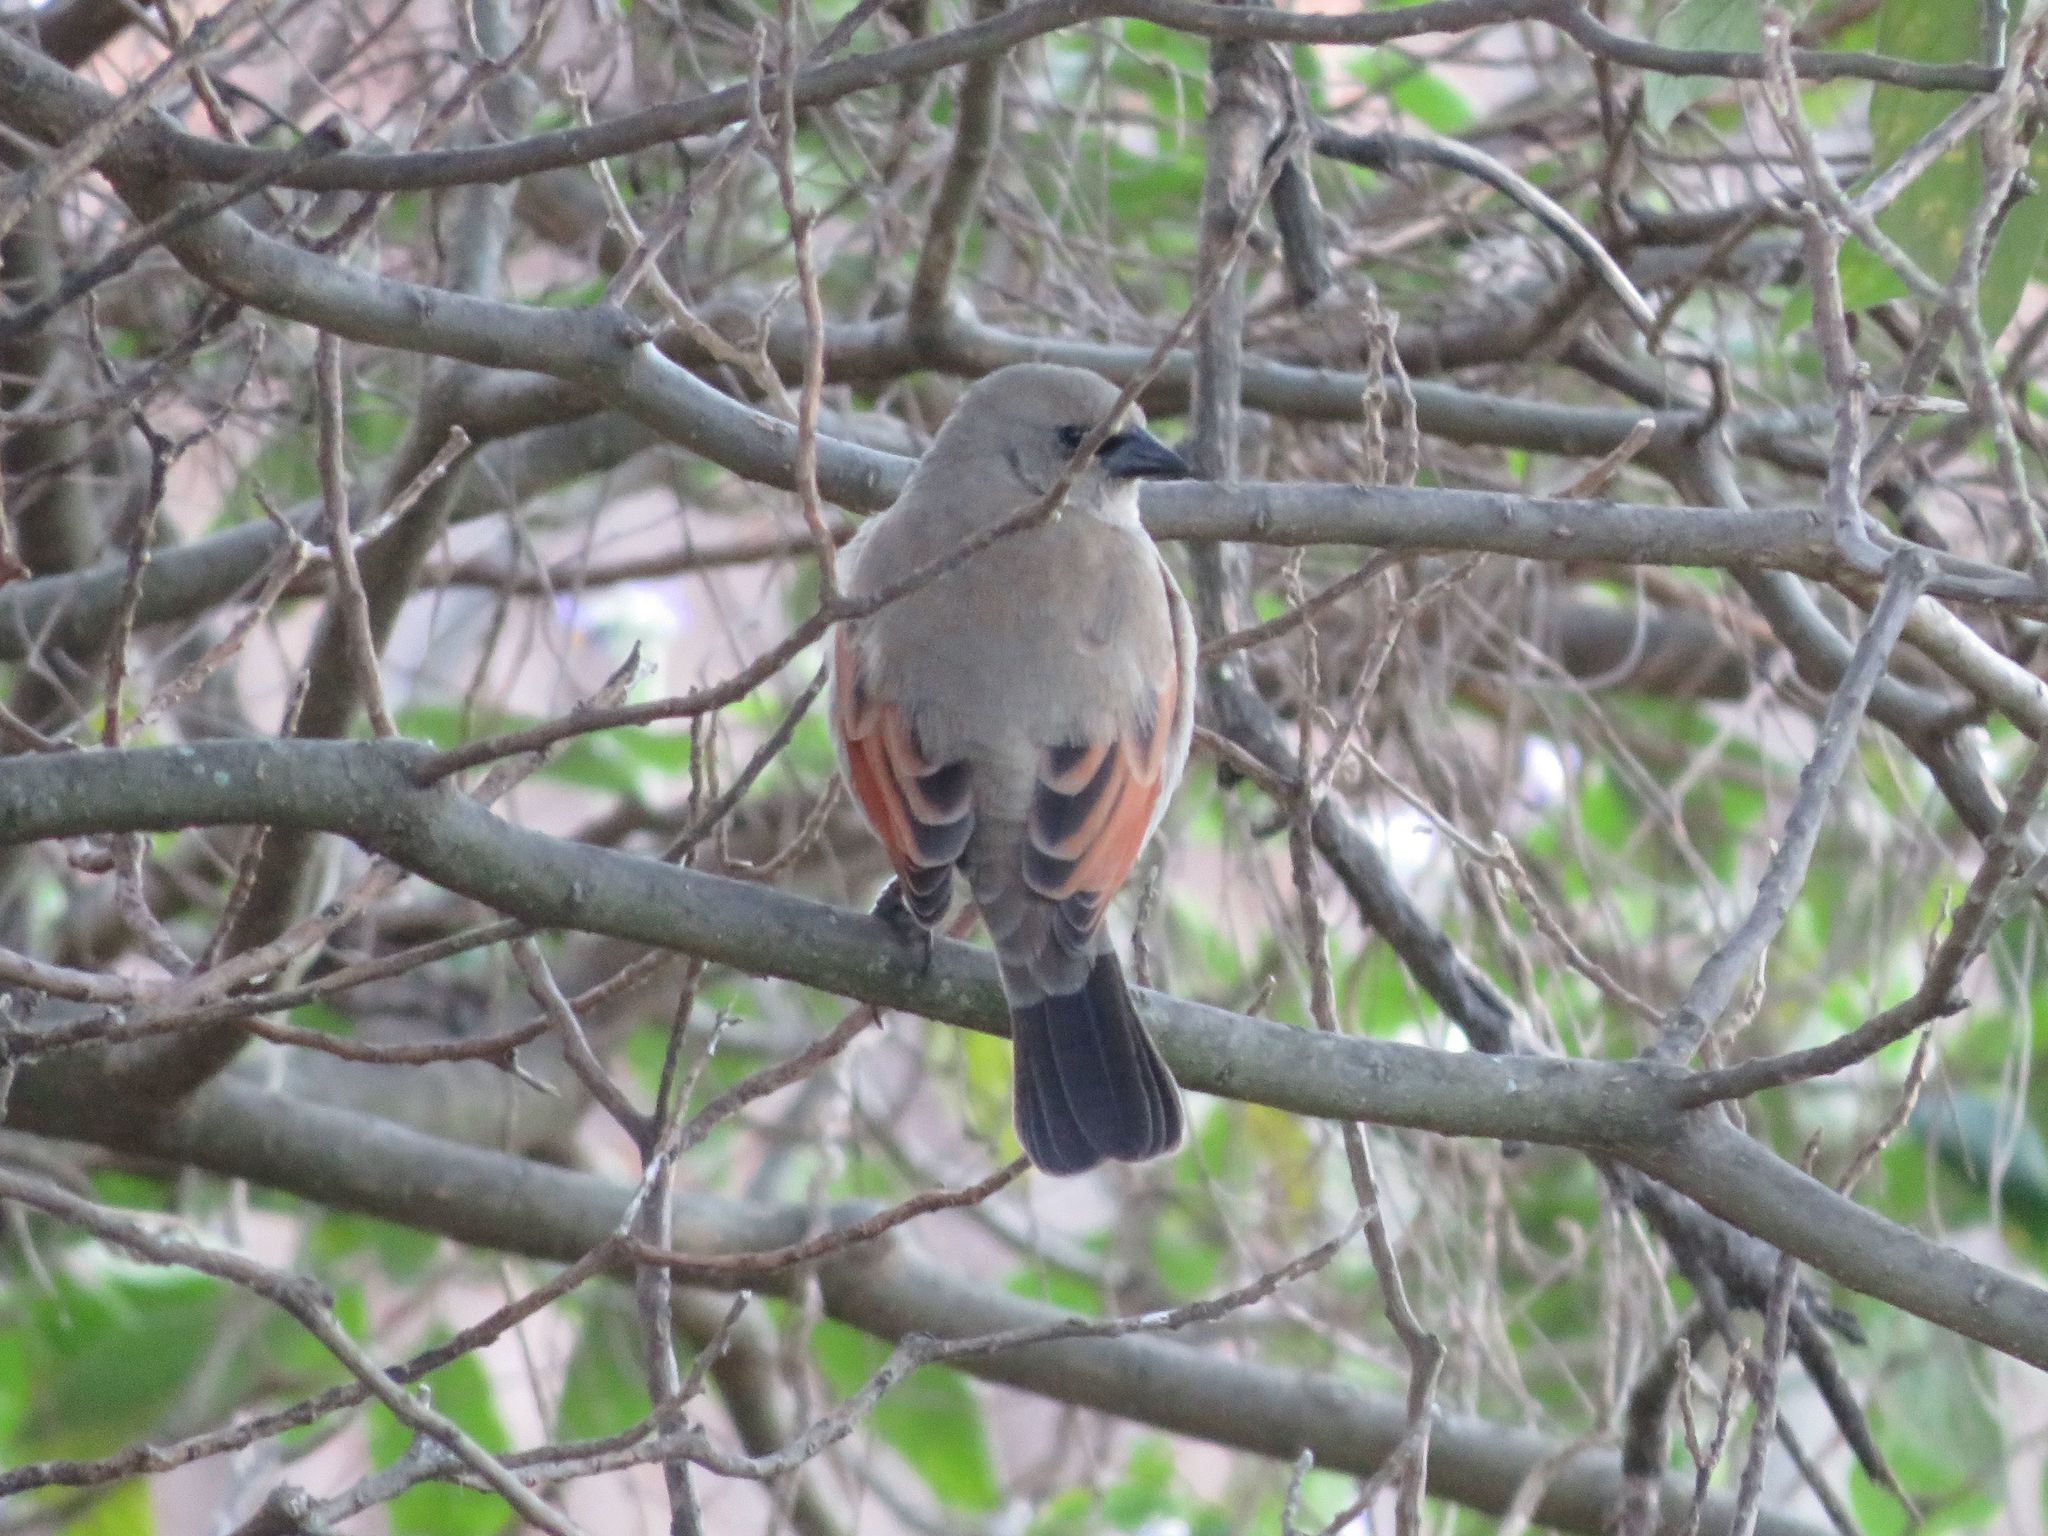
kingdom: Animalia
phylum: Chordata
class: Aves
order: Passeriformes
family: Icteridae
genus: Agelaioides
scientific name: Agelaioides badius
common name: Baywing
